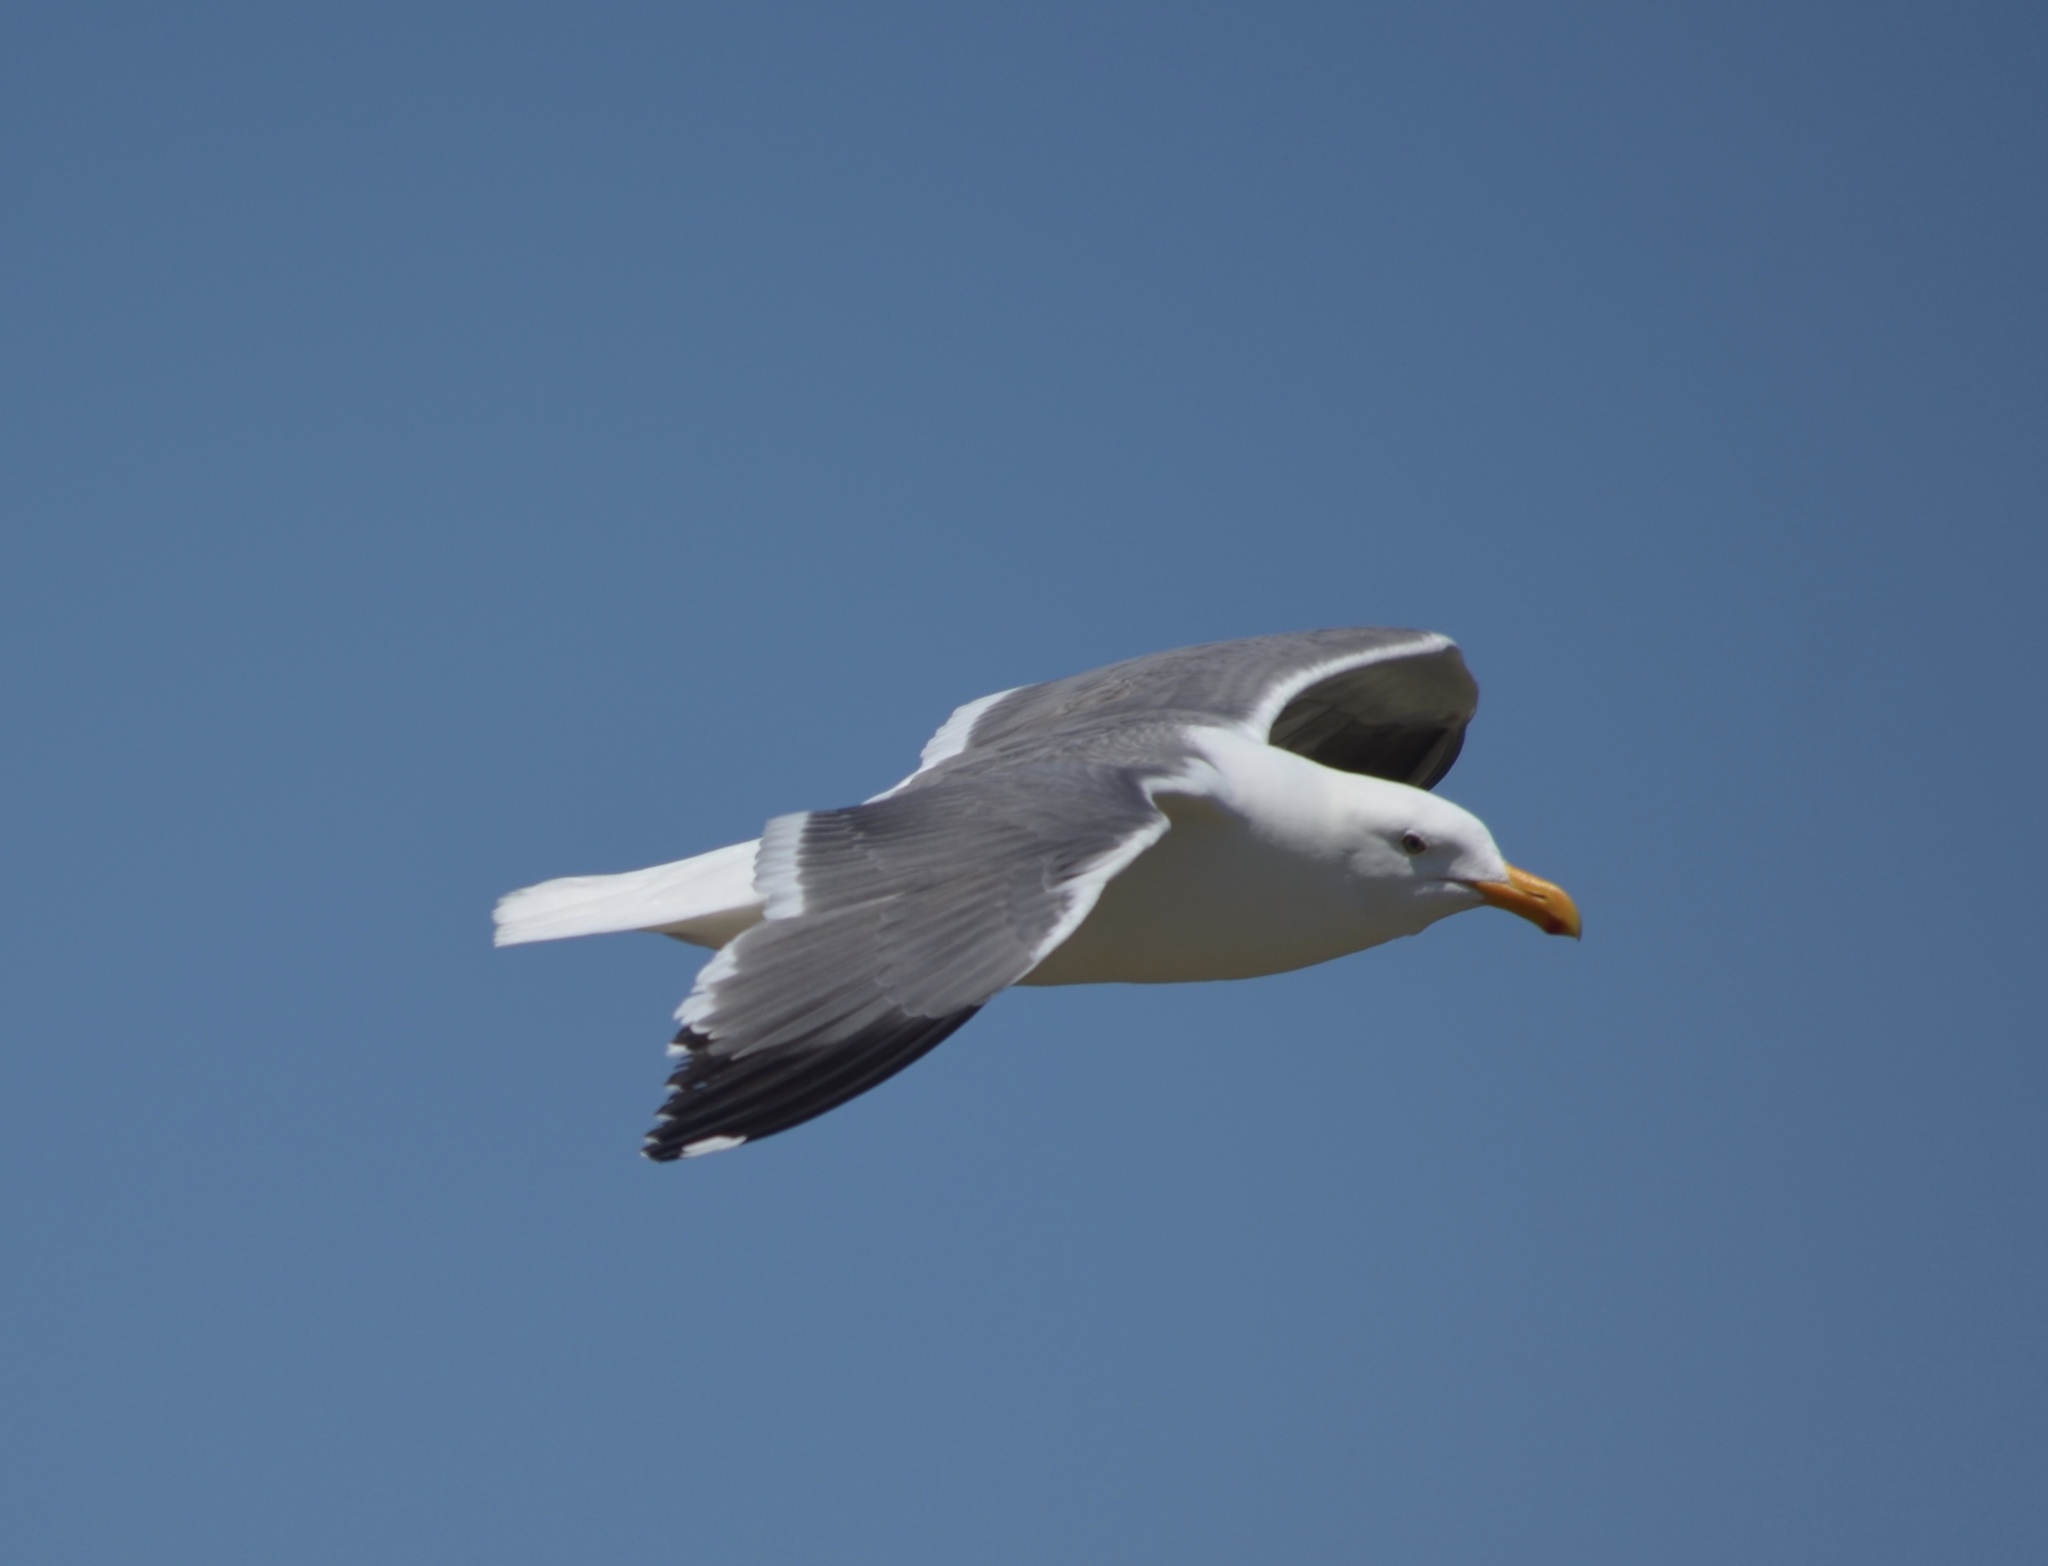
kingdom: Animalia
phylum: Chordata
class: Aves
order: Charadriiformes
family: Laridae
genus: Larus
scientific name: Larus occidentalis
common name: Western gull
